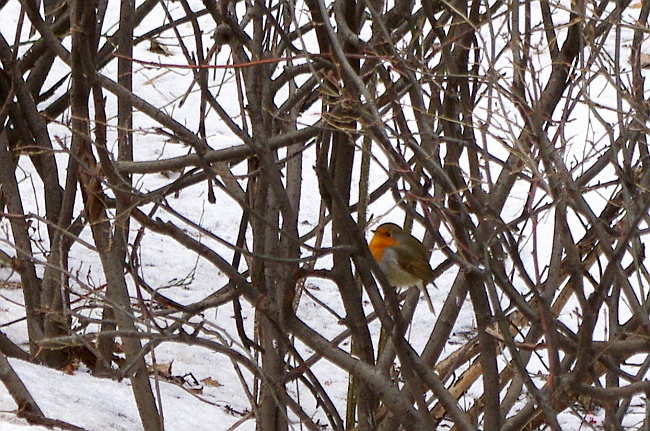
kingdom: Animalia
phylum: Chordata
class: Aves
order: Passeriformes
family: Muscicapidae
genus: Erithacus
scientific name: Erithacus rubecula
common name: European robin
